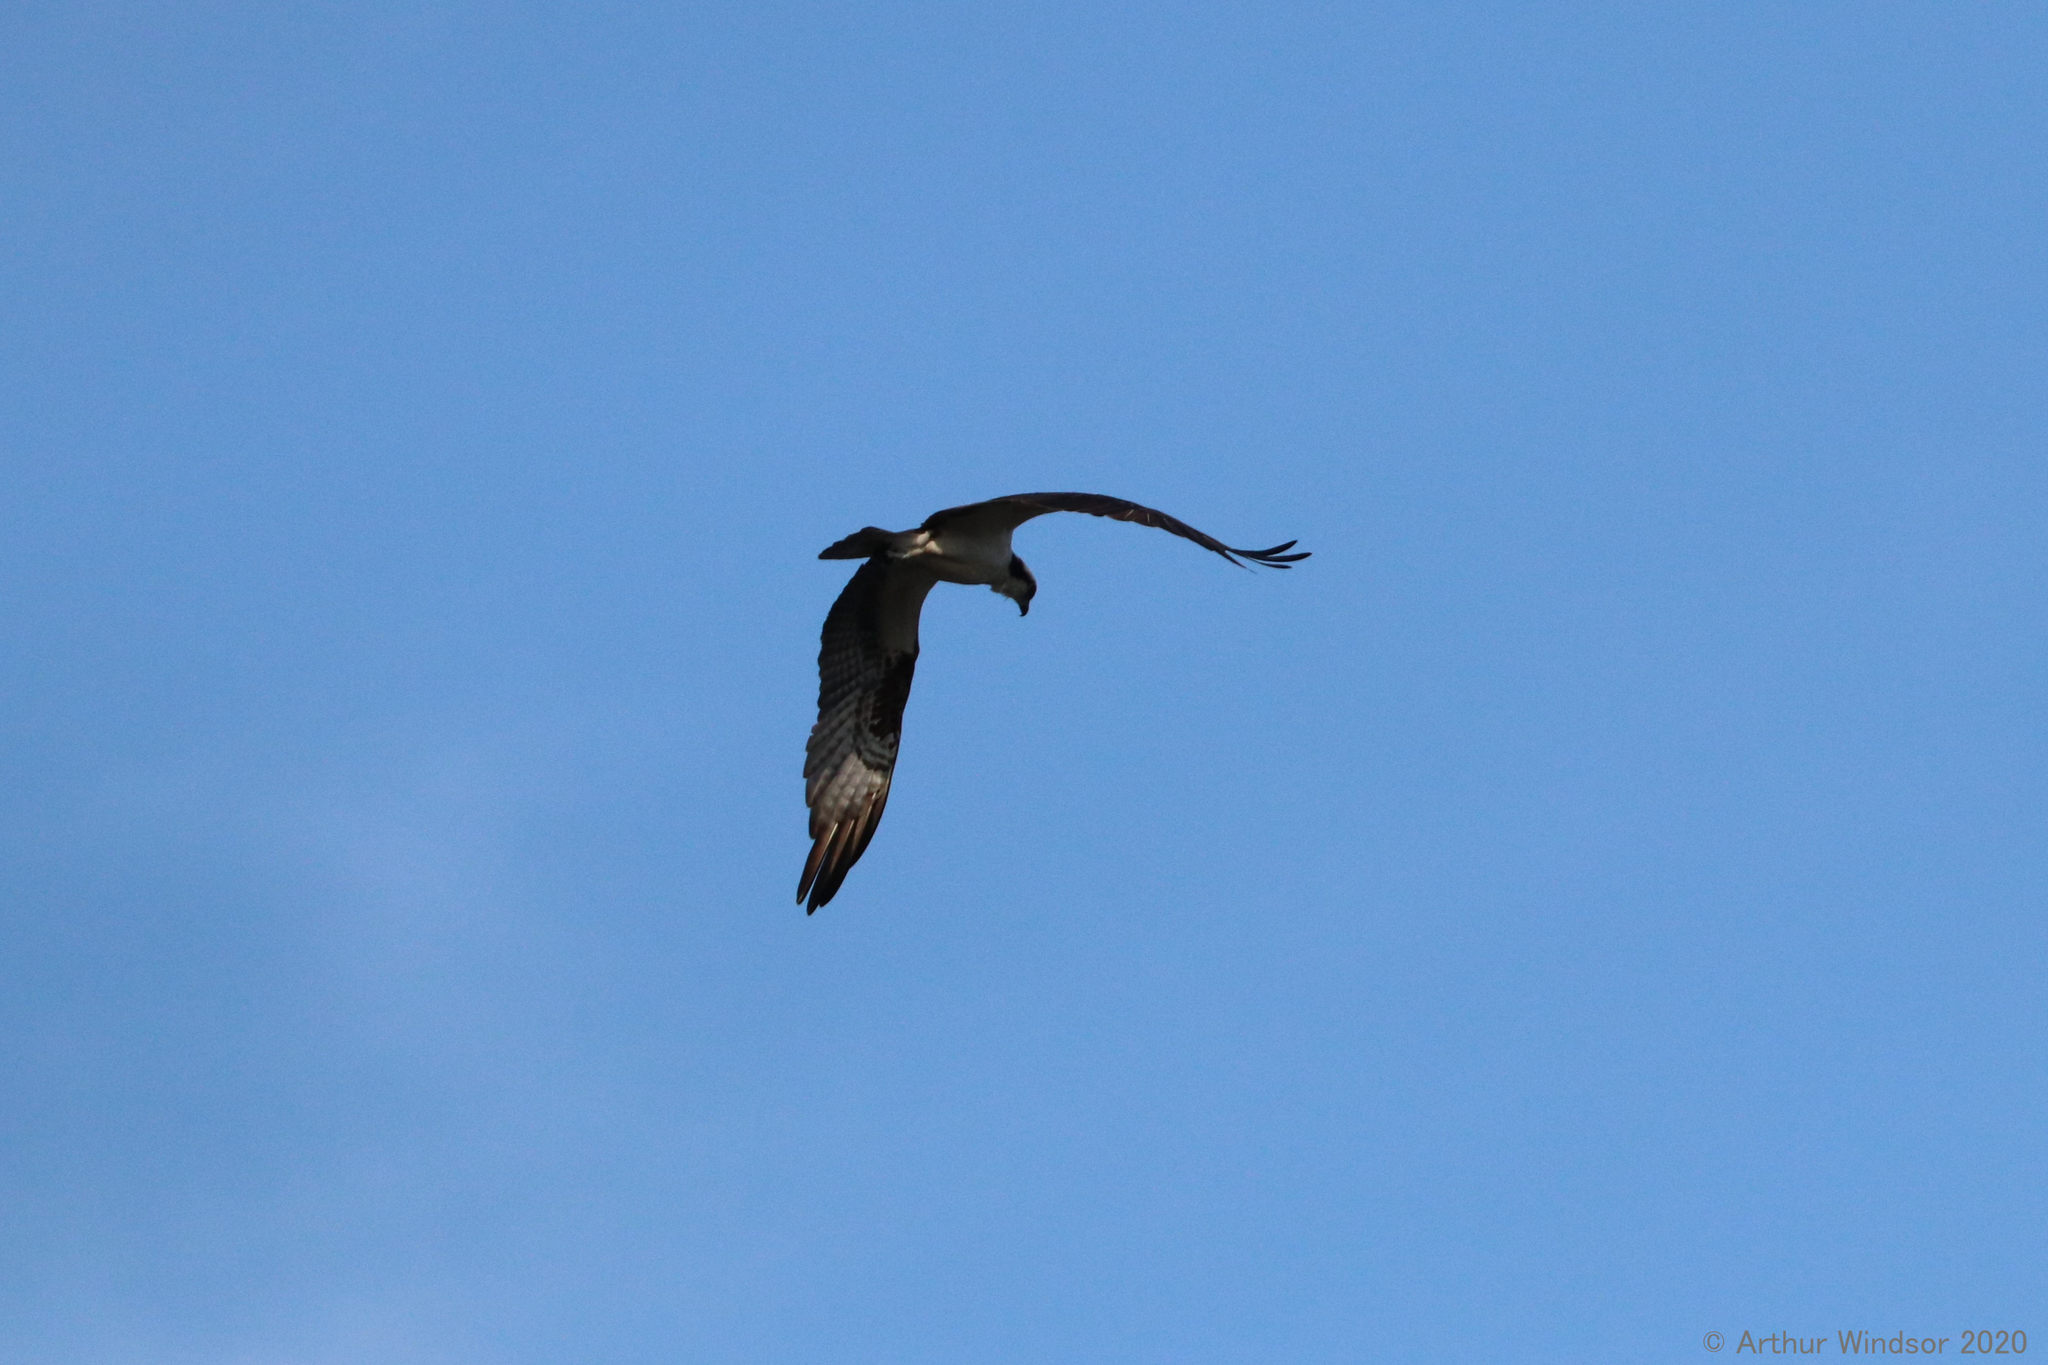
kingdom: Animalia
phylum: Chordata
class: Aves
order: Accipitriformes
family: Pandionidae
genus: Pandion
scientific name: Pandion haliaetus
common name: Osprey
